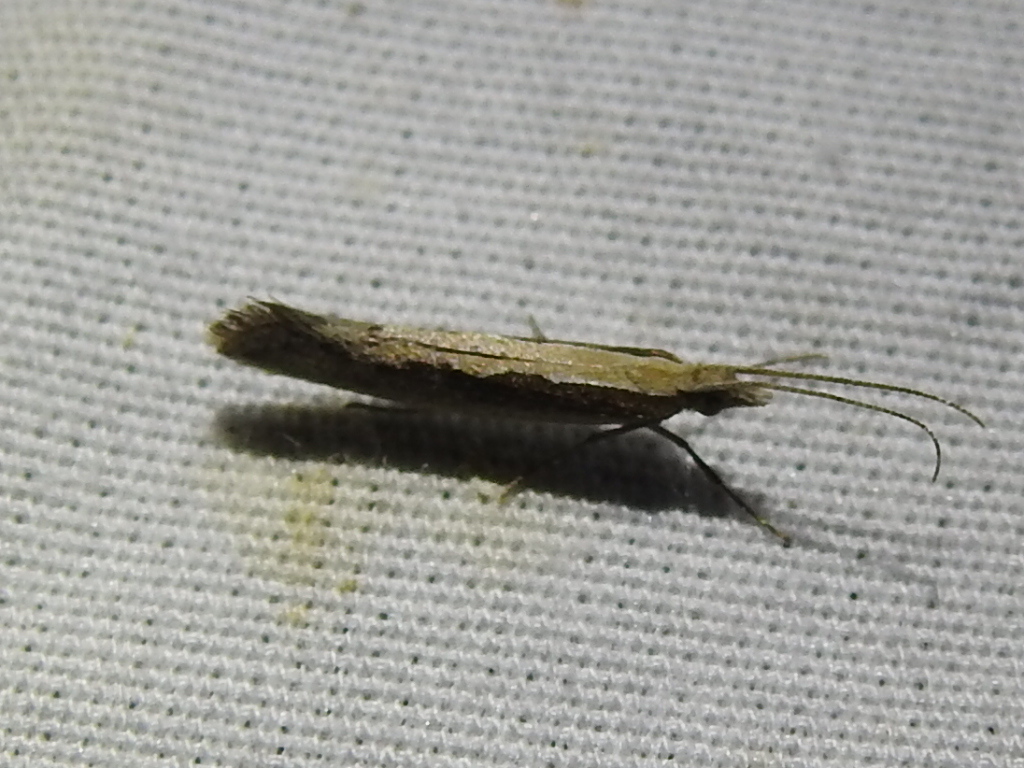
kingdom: Animalia
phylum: Arthropoda
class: Insecta
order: Lepidoptera
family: Plutellidae
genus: Plutella
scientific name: Plutella xylostella
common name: Diamond-back moth
